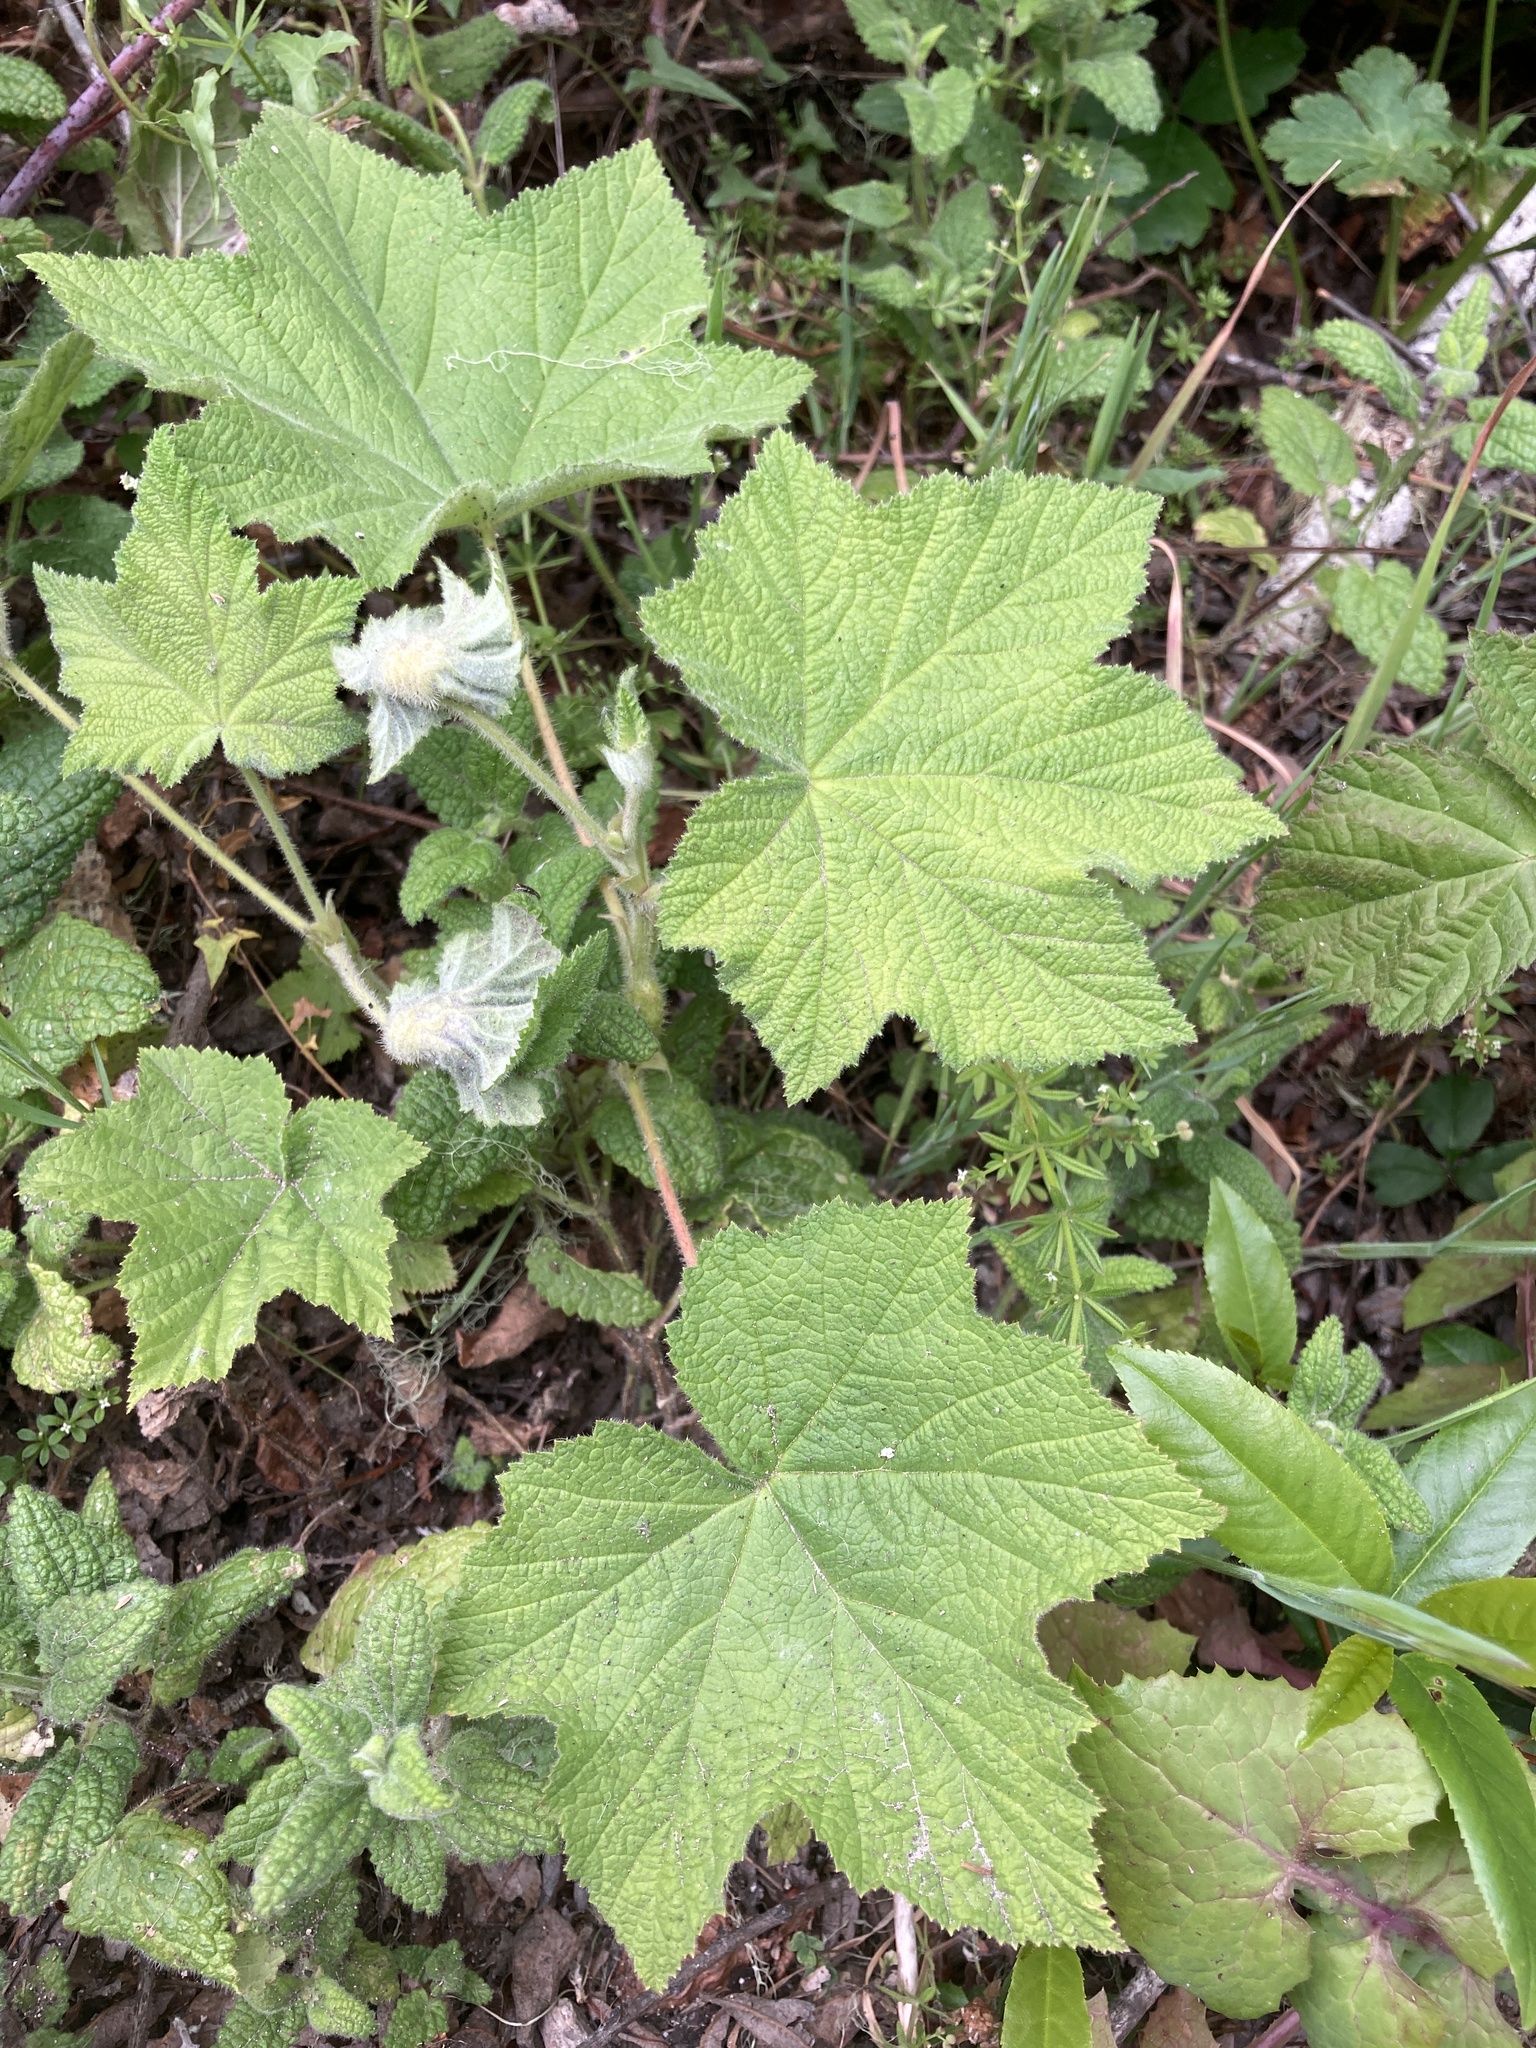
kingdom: Plantae
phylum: Tracheophyta
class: Magnoliopsida
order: Rosales
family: Rosaceae
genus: Rubus
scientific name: Rubus parviflorus
